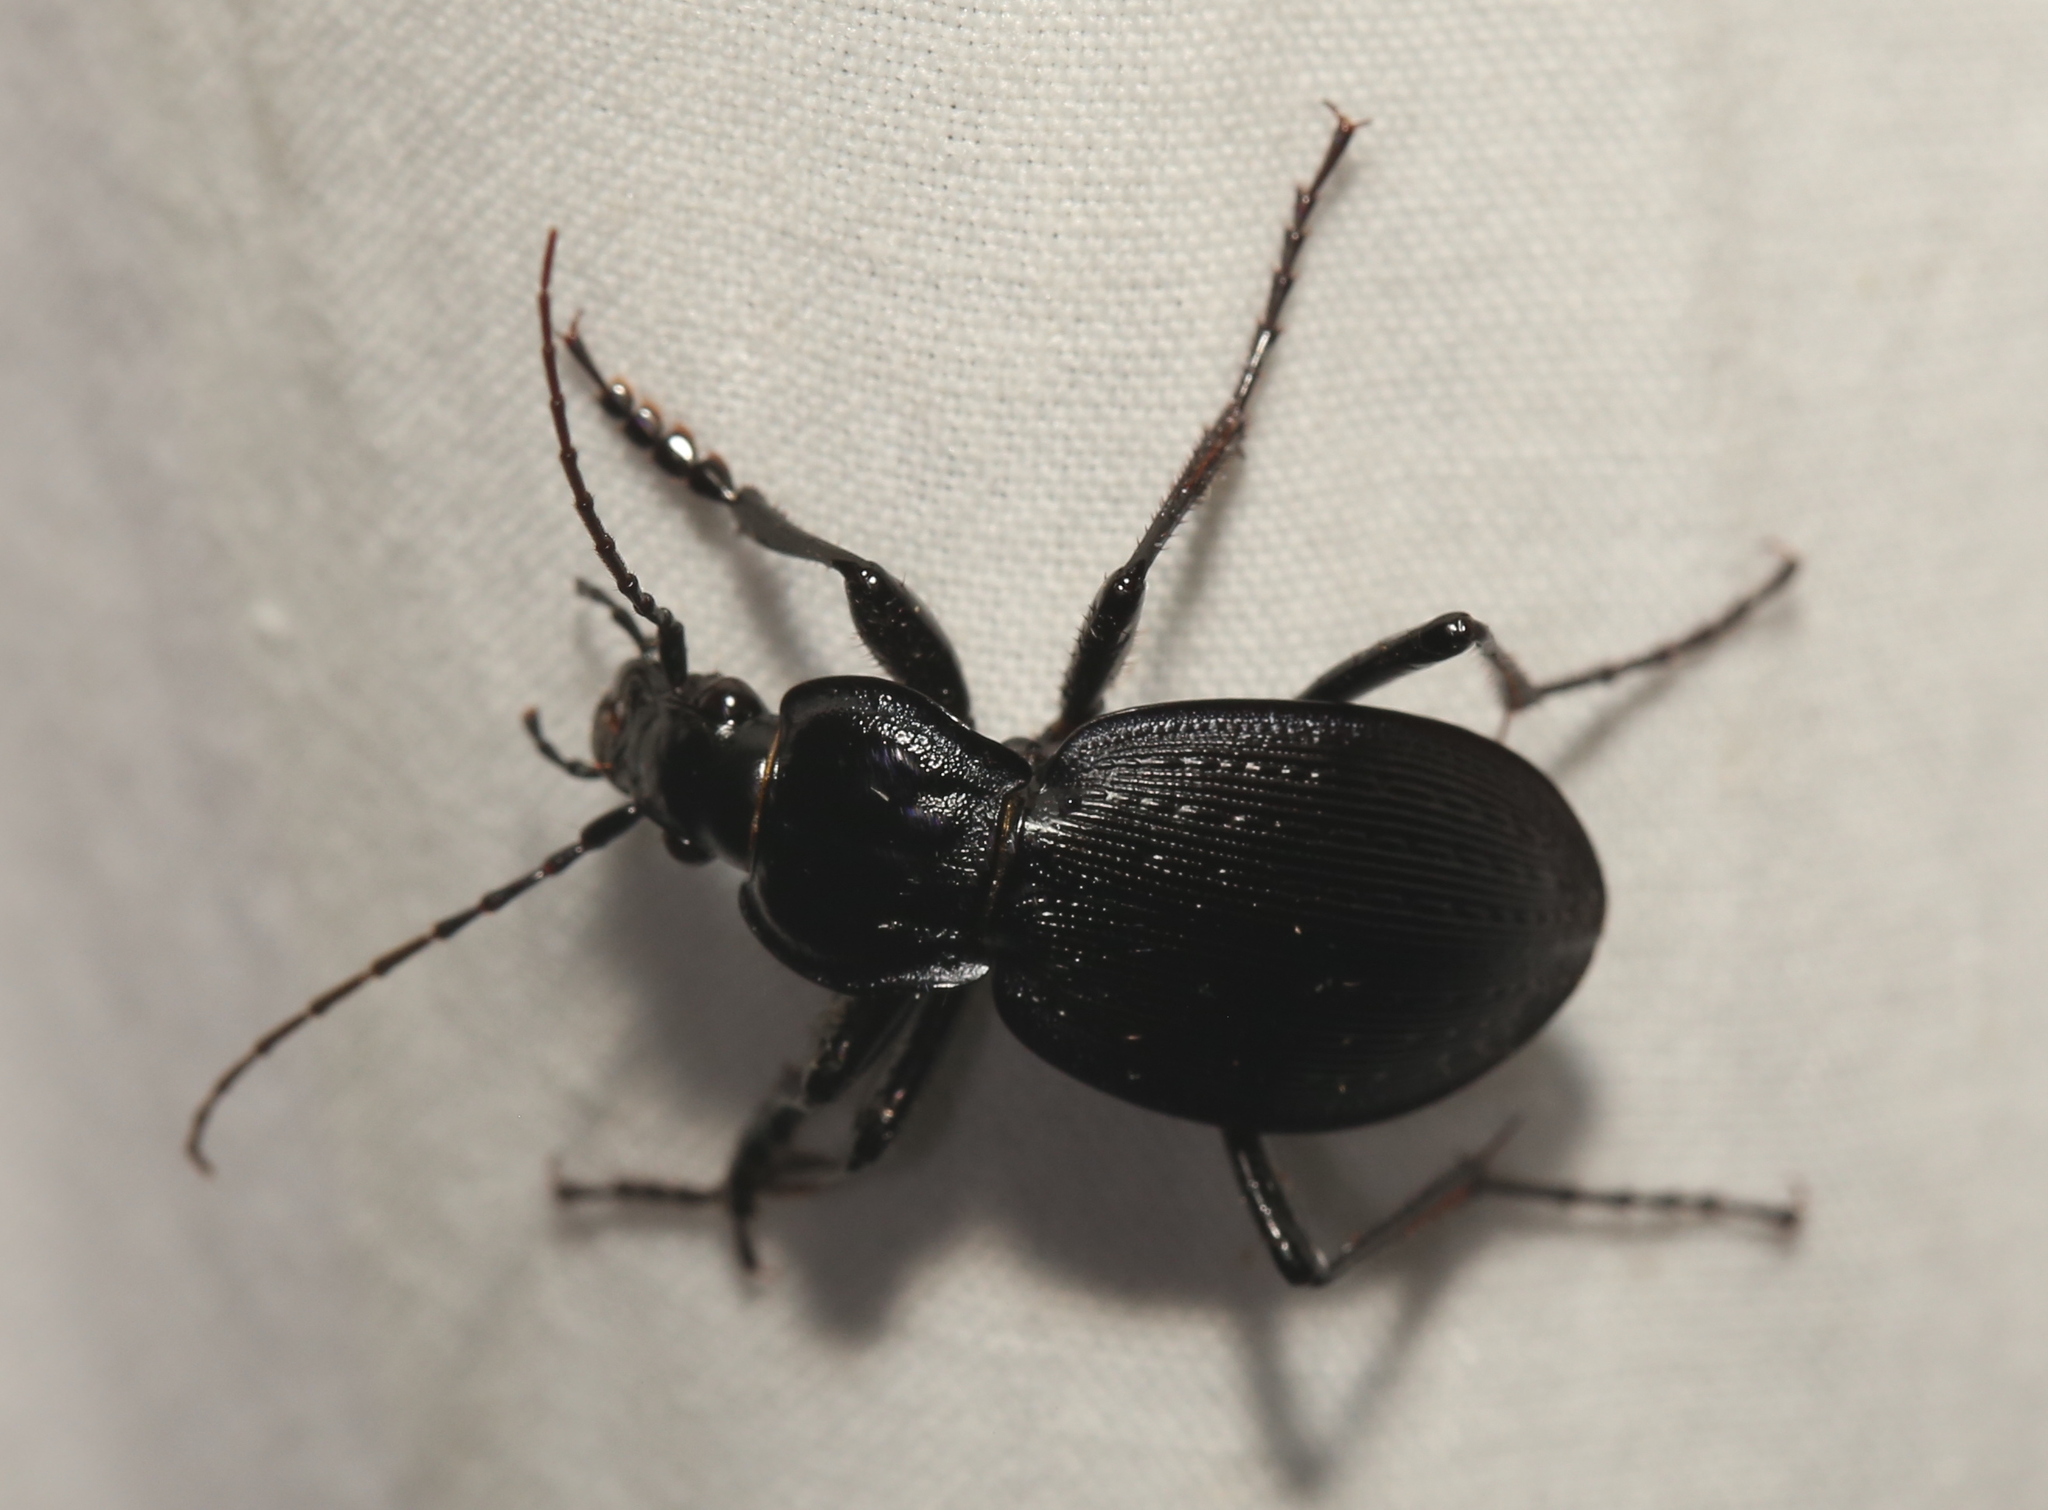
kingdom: Animalia
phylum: Arthropoda
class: Insecta
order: Coleoptera
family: Carabidae
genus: Carabus
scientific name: Carabus goryi
